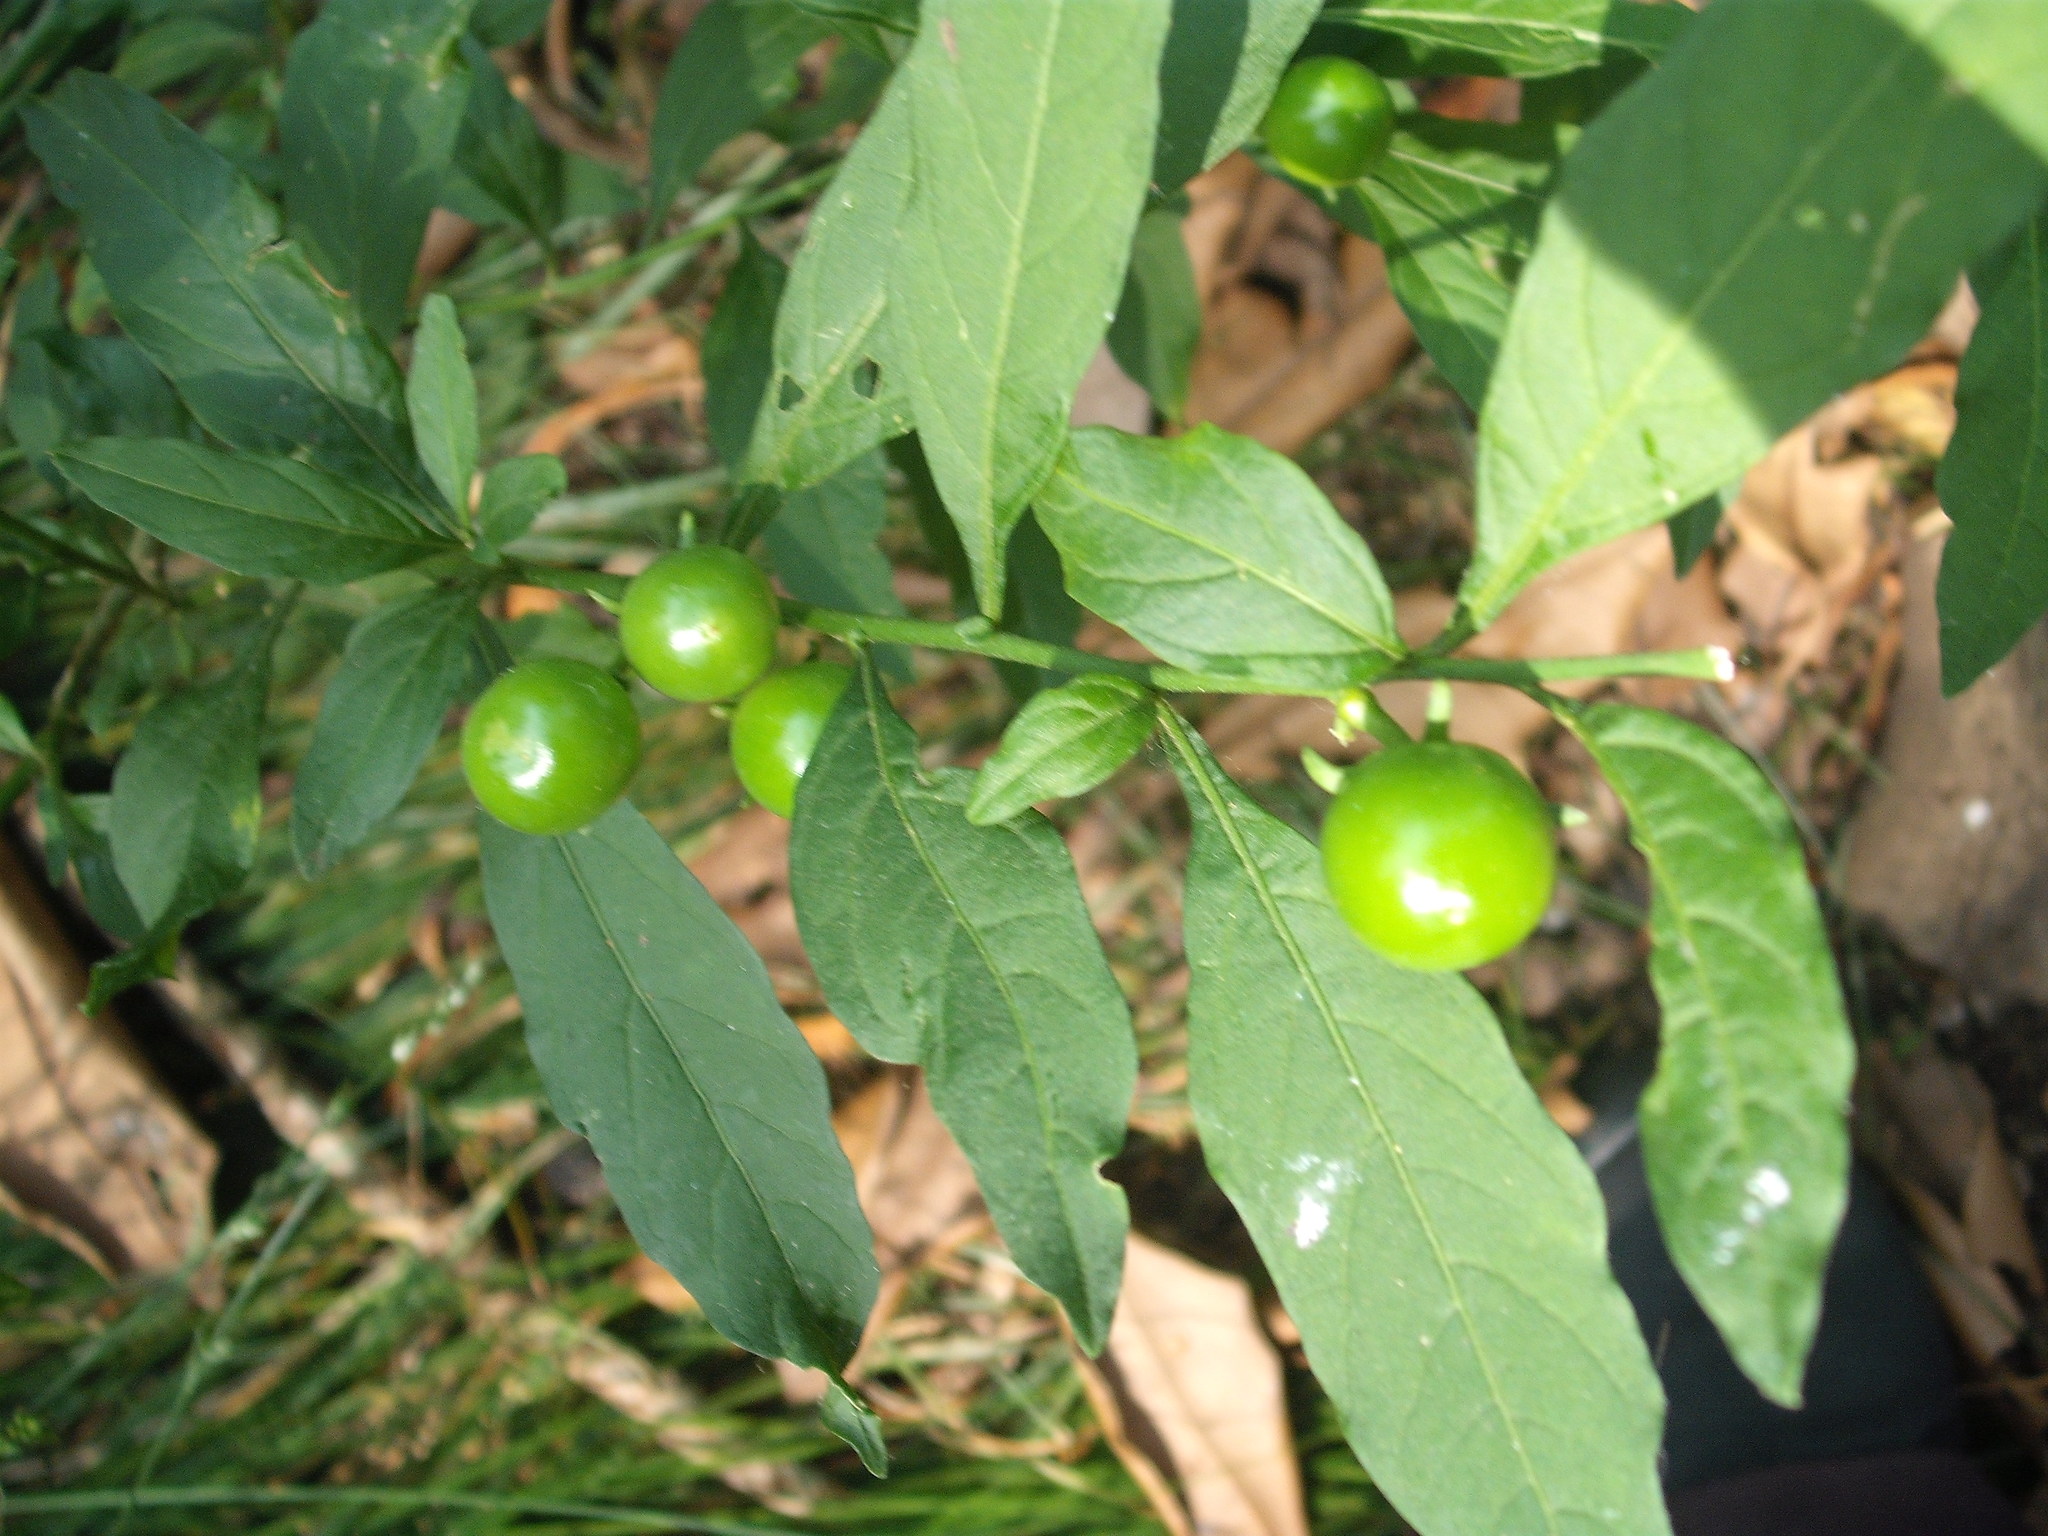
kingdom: Plantae
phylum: Tracheophyta
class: Magnoliopsida
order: Solanales
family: Solanaceae
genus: Solanum
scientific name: Solanum pseudocapsicum
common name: Jerusalem cherry
